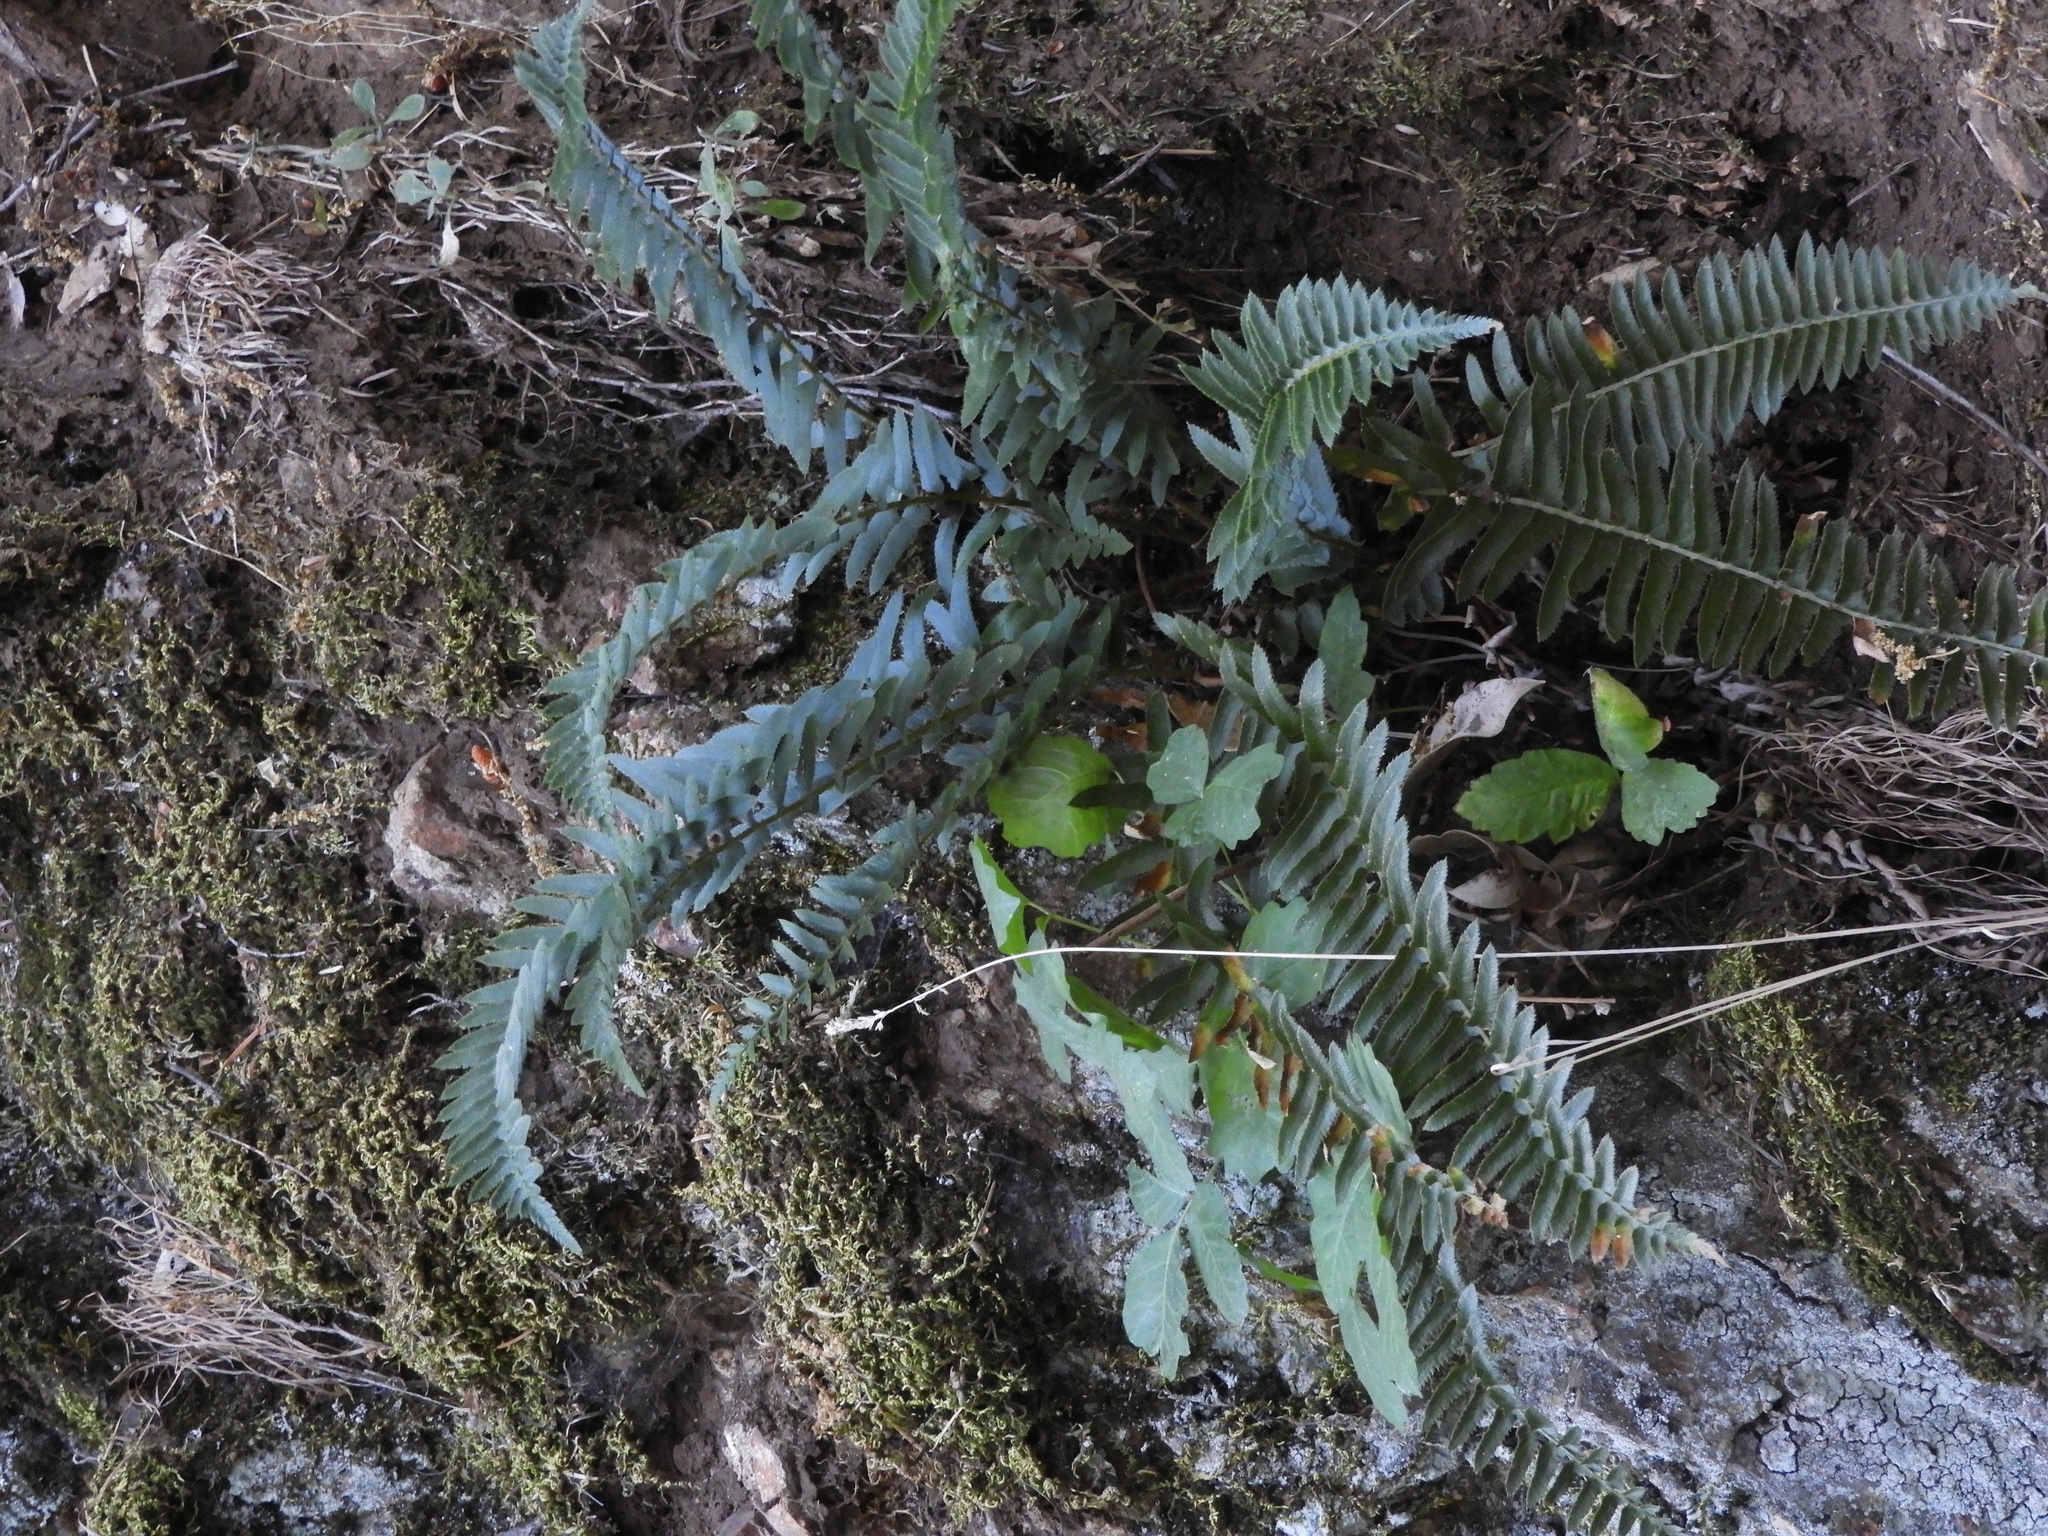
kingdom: Plantae
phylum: Tracheophyta
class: Polypodiopsida
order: Polypodiales
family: Dryopteridaceae
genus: Polystichum
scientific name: Polystichum imbricans
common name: Dwarf western sword fern
